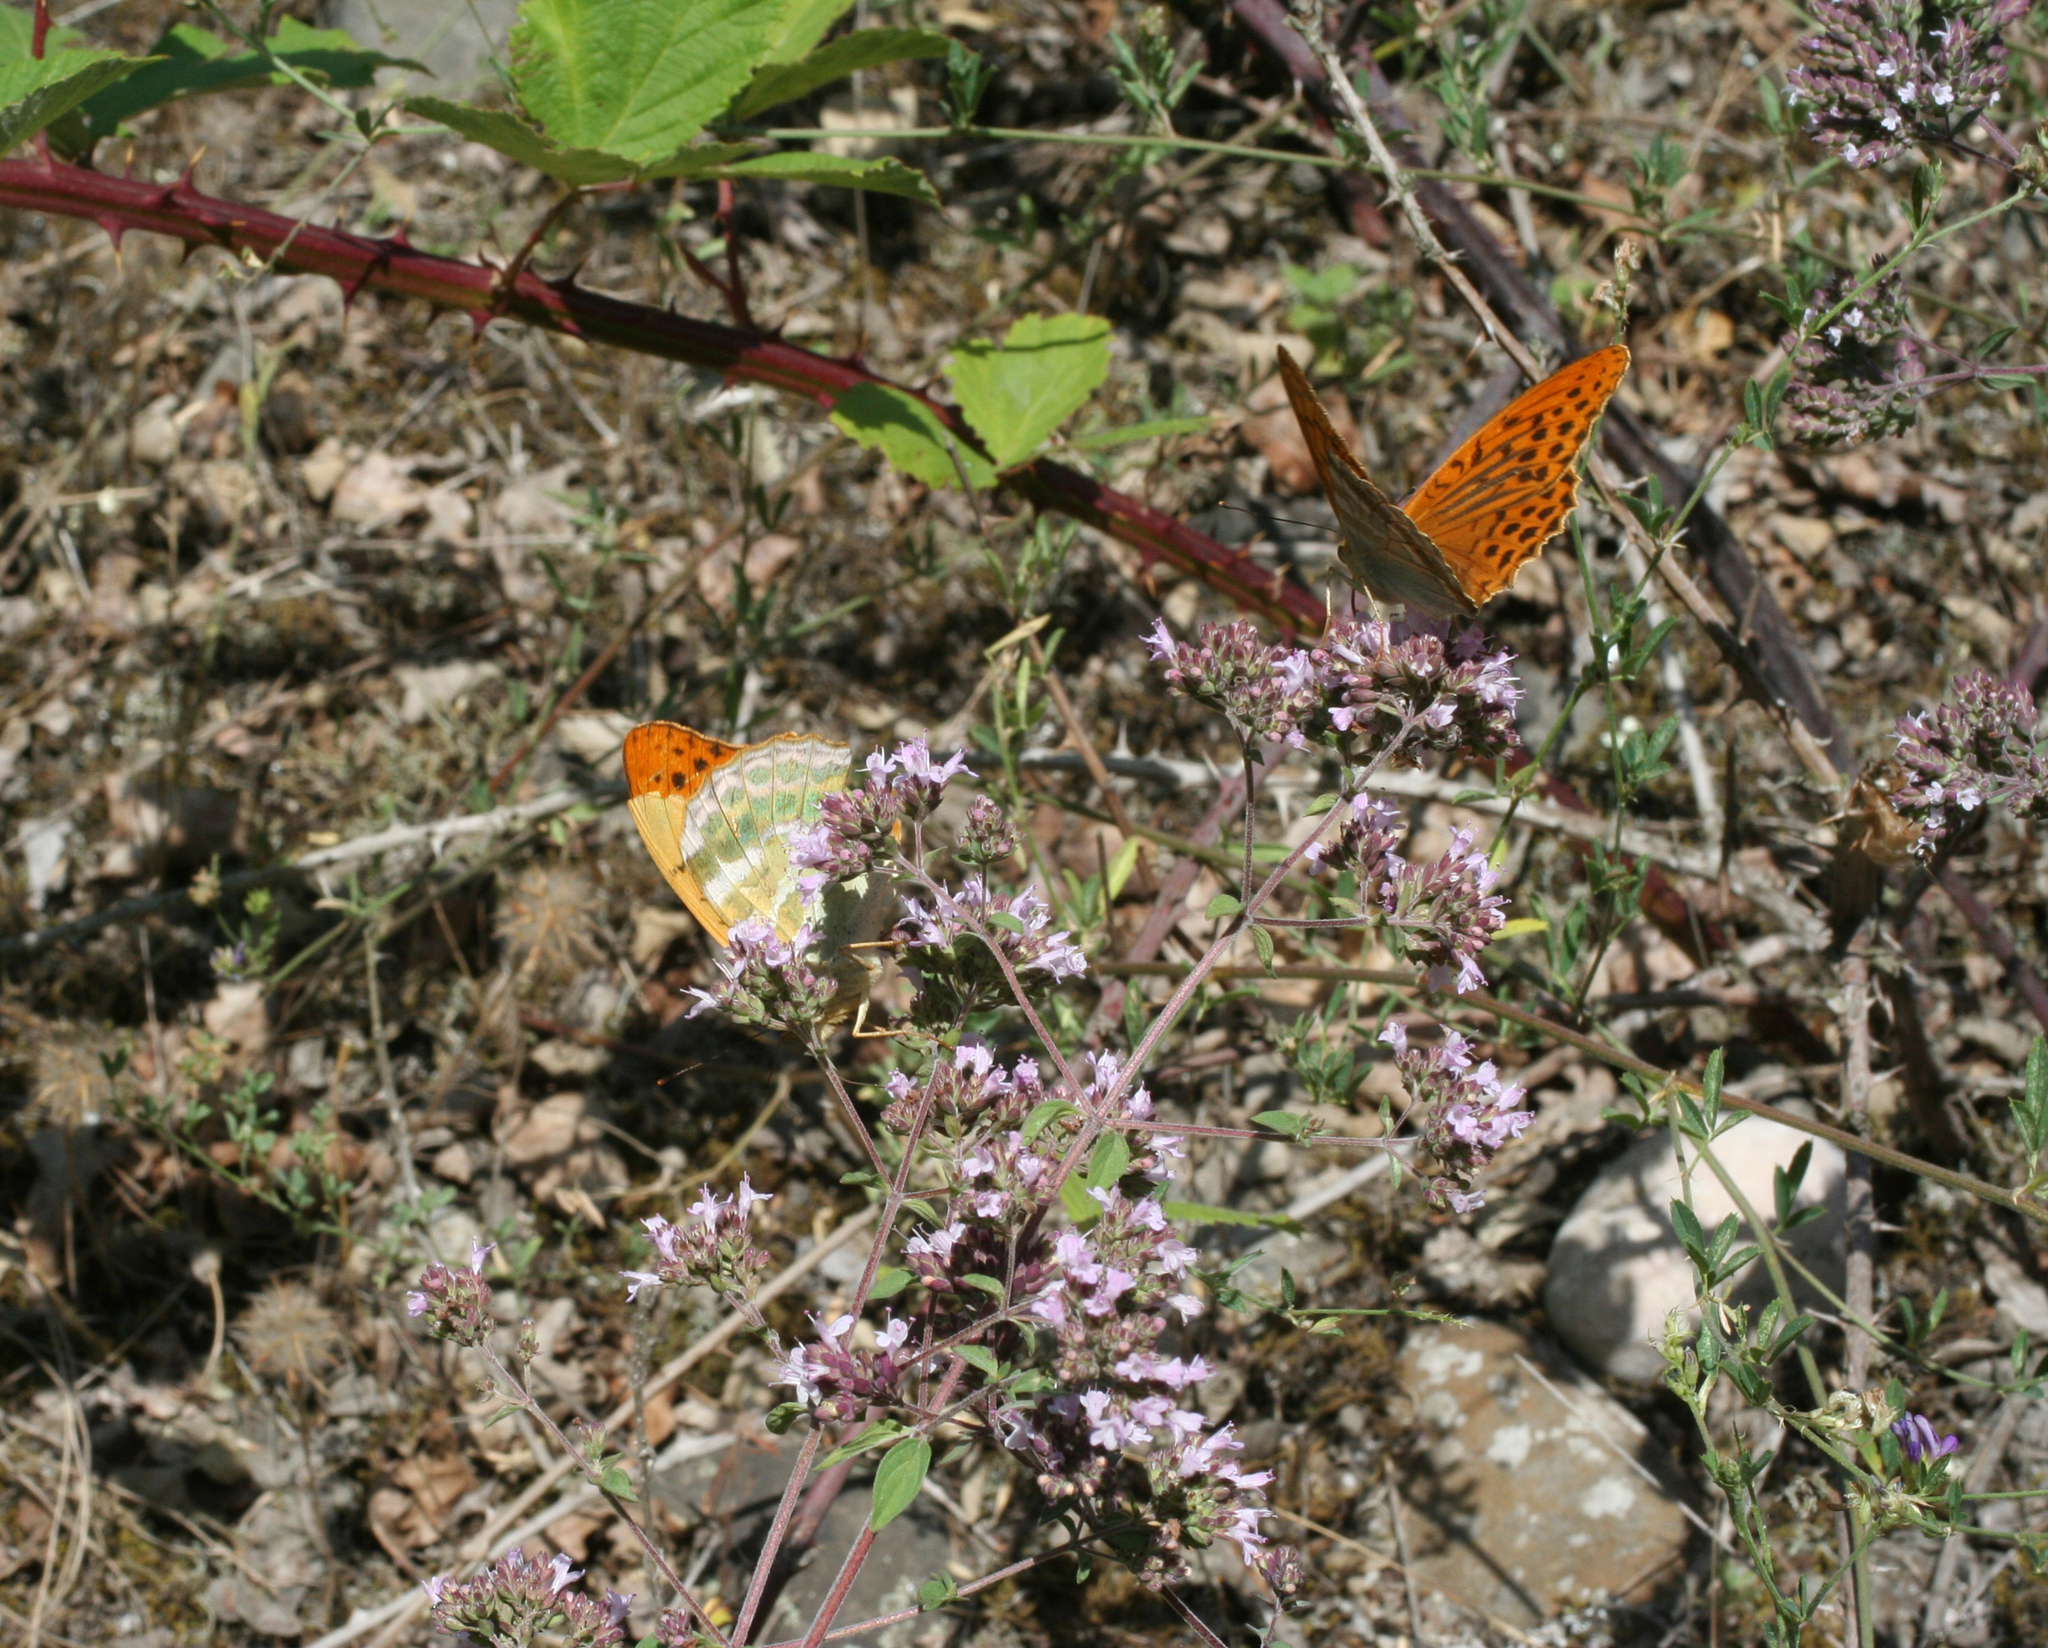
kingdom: Animalia
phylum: Arthropoda
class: Insecta
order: Lepidoptera
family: Nymphalidae
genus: Argynnis
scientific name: Argynnis paphia
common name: Silver-washed fritillary
